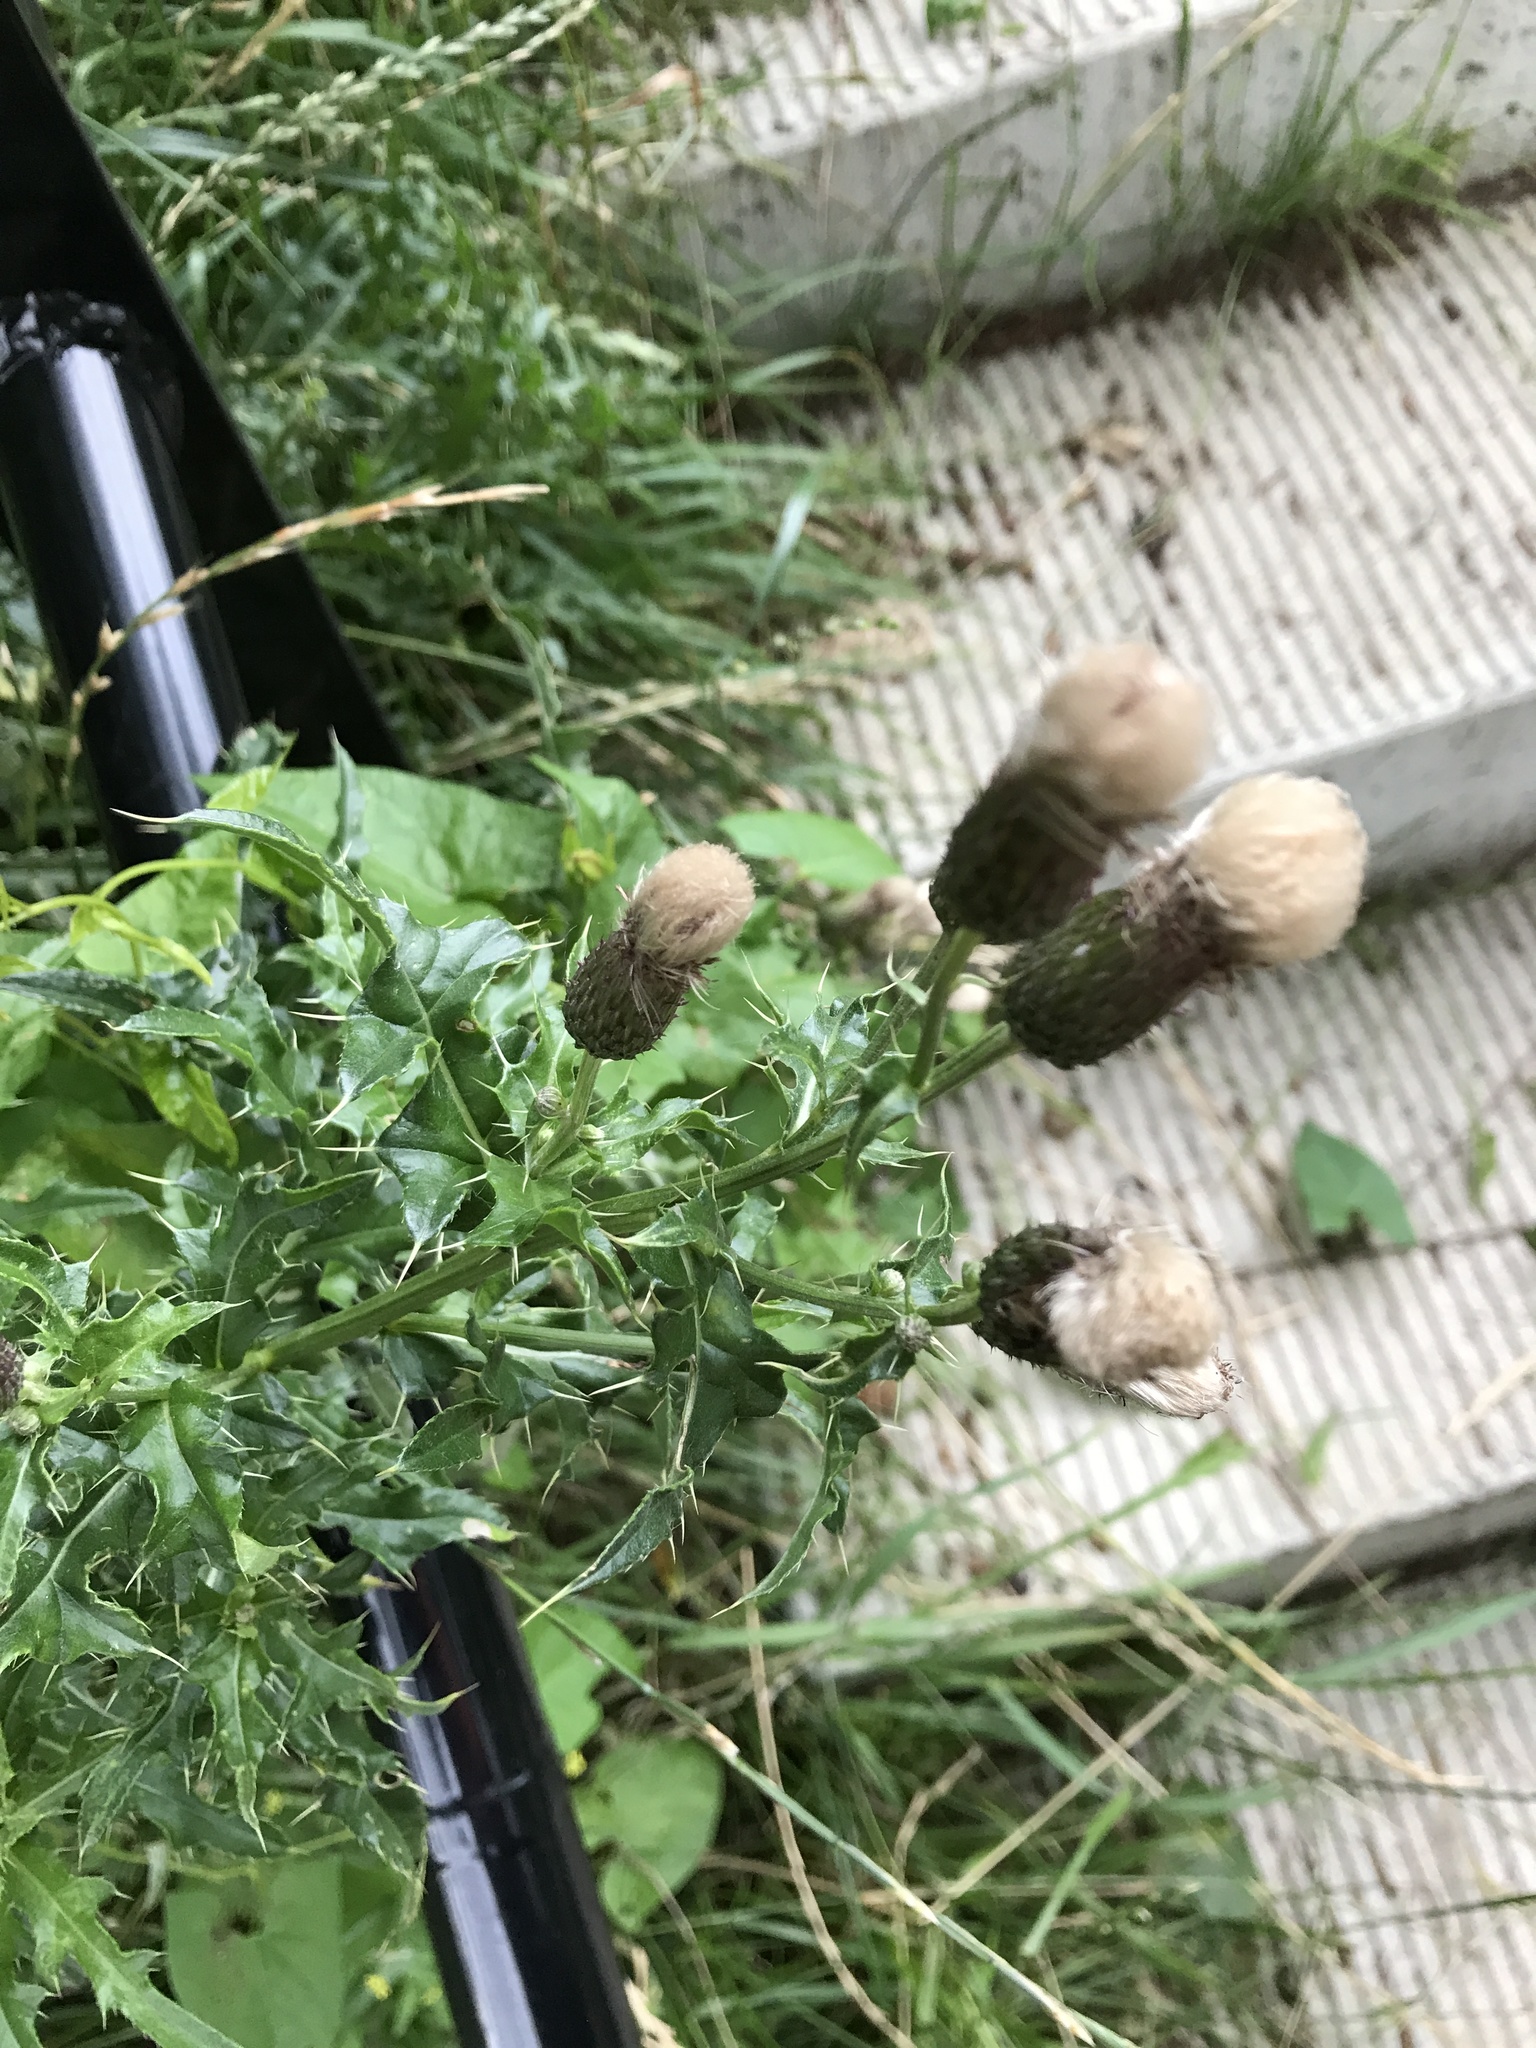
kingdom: Plantae
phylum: Tracheophyta
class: Magnoliopsida
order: Asterales
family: Asteraceae
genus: Cirsium
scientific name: Cirsium arvense
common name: Creeping thistle
